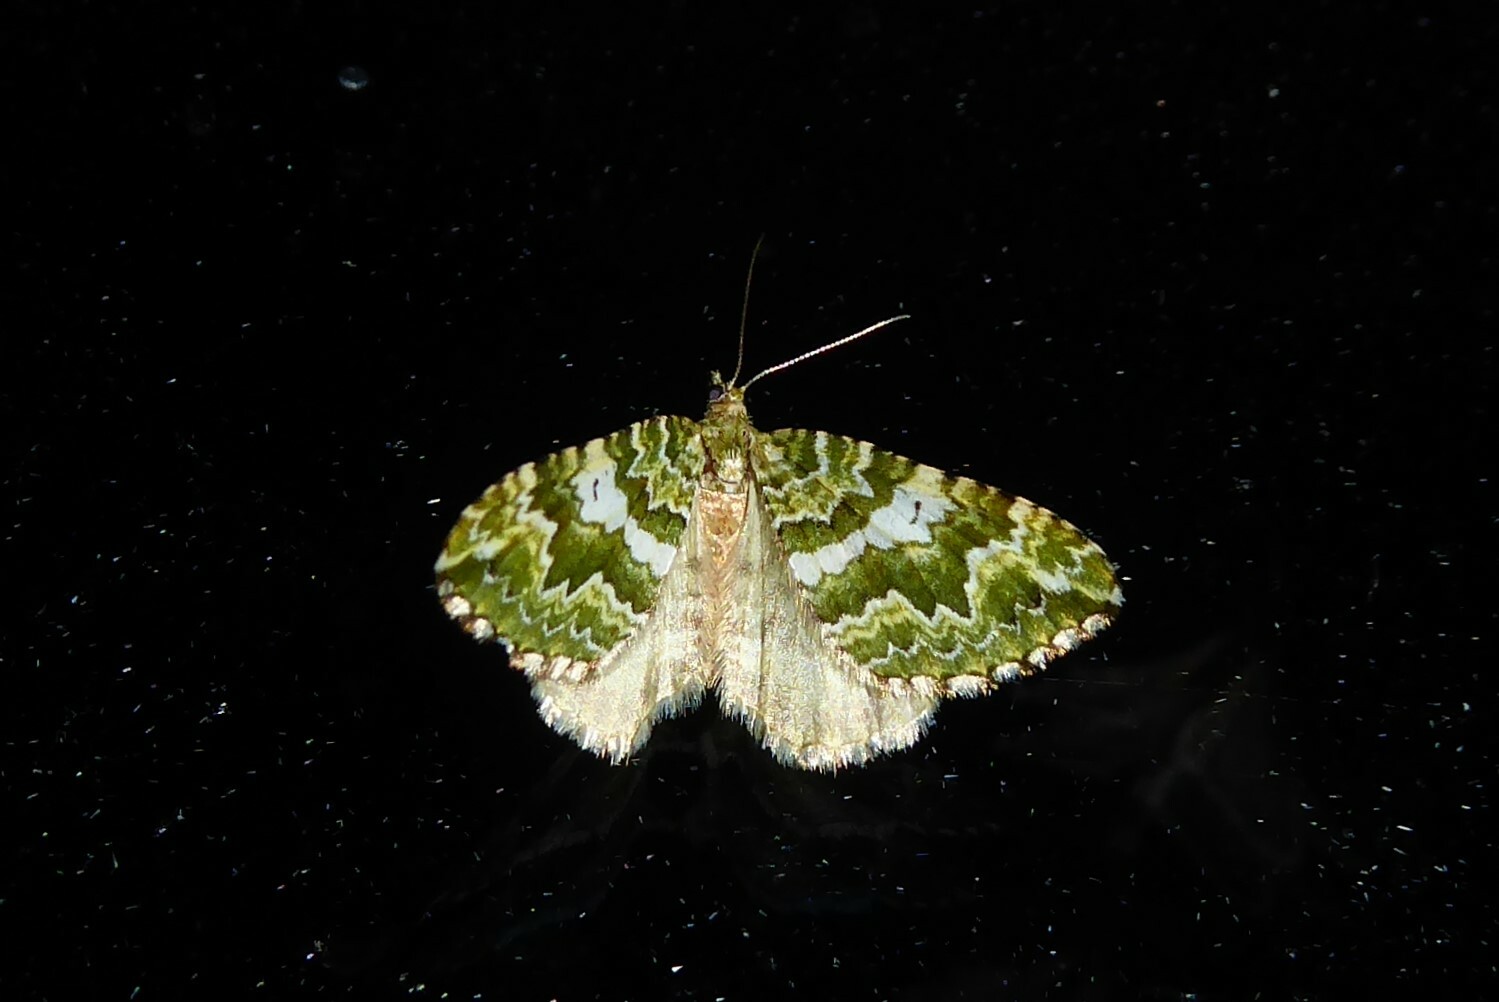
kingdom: Animalia
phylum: Arthropoda
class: Insecta
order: Lepidoptera
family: Geometridae
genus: Asaphodes
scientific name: Asaphodes beata
